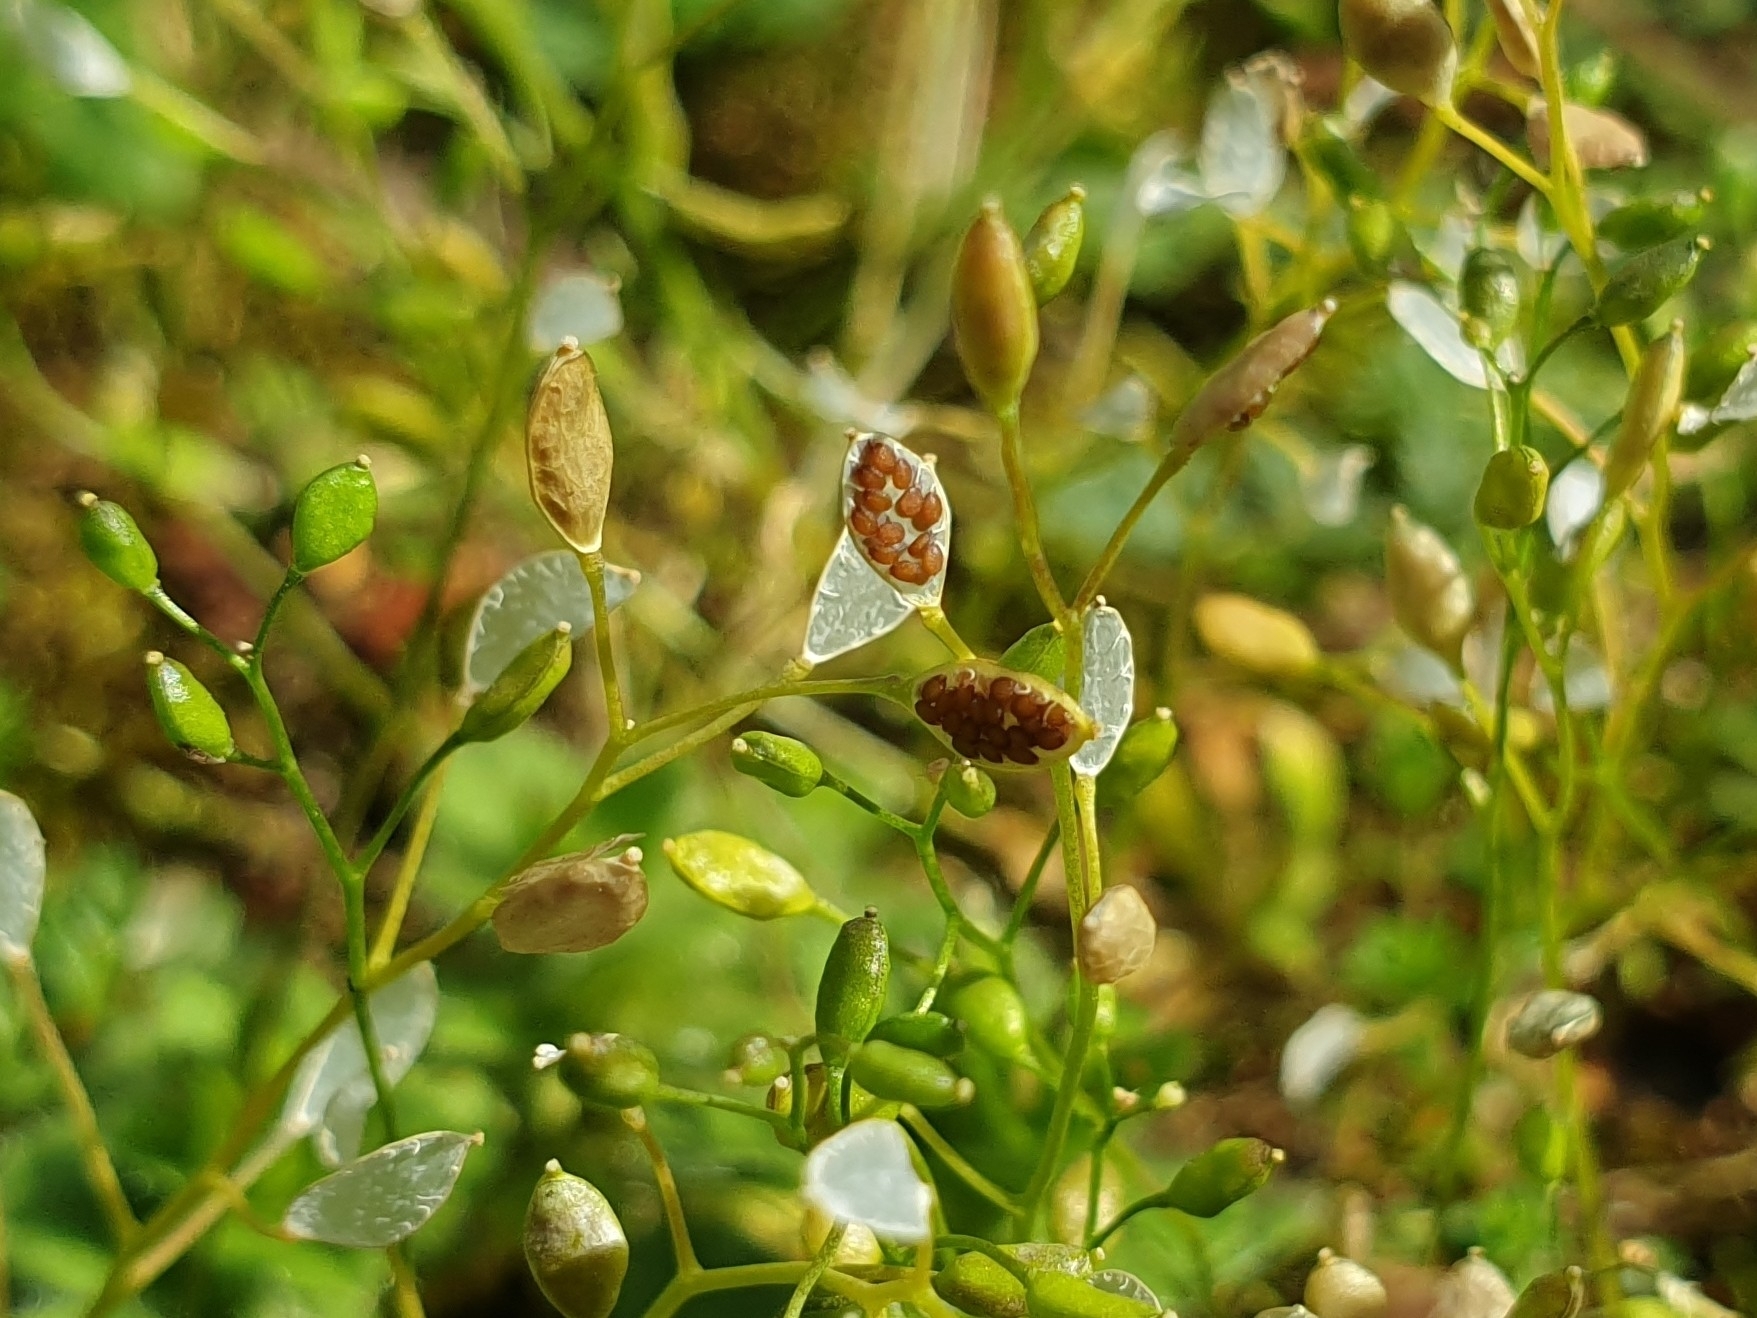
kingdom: Plantae
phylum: Tracheophyta
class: Magnoliopsida
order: Brassicales
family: Brassicaceae
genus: Draba
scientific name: Draba verna
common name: Spring draba
